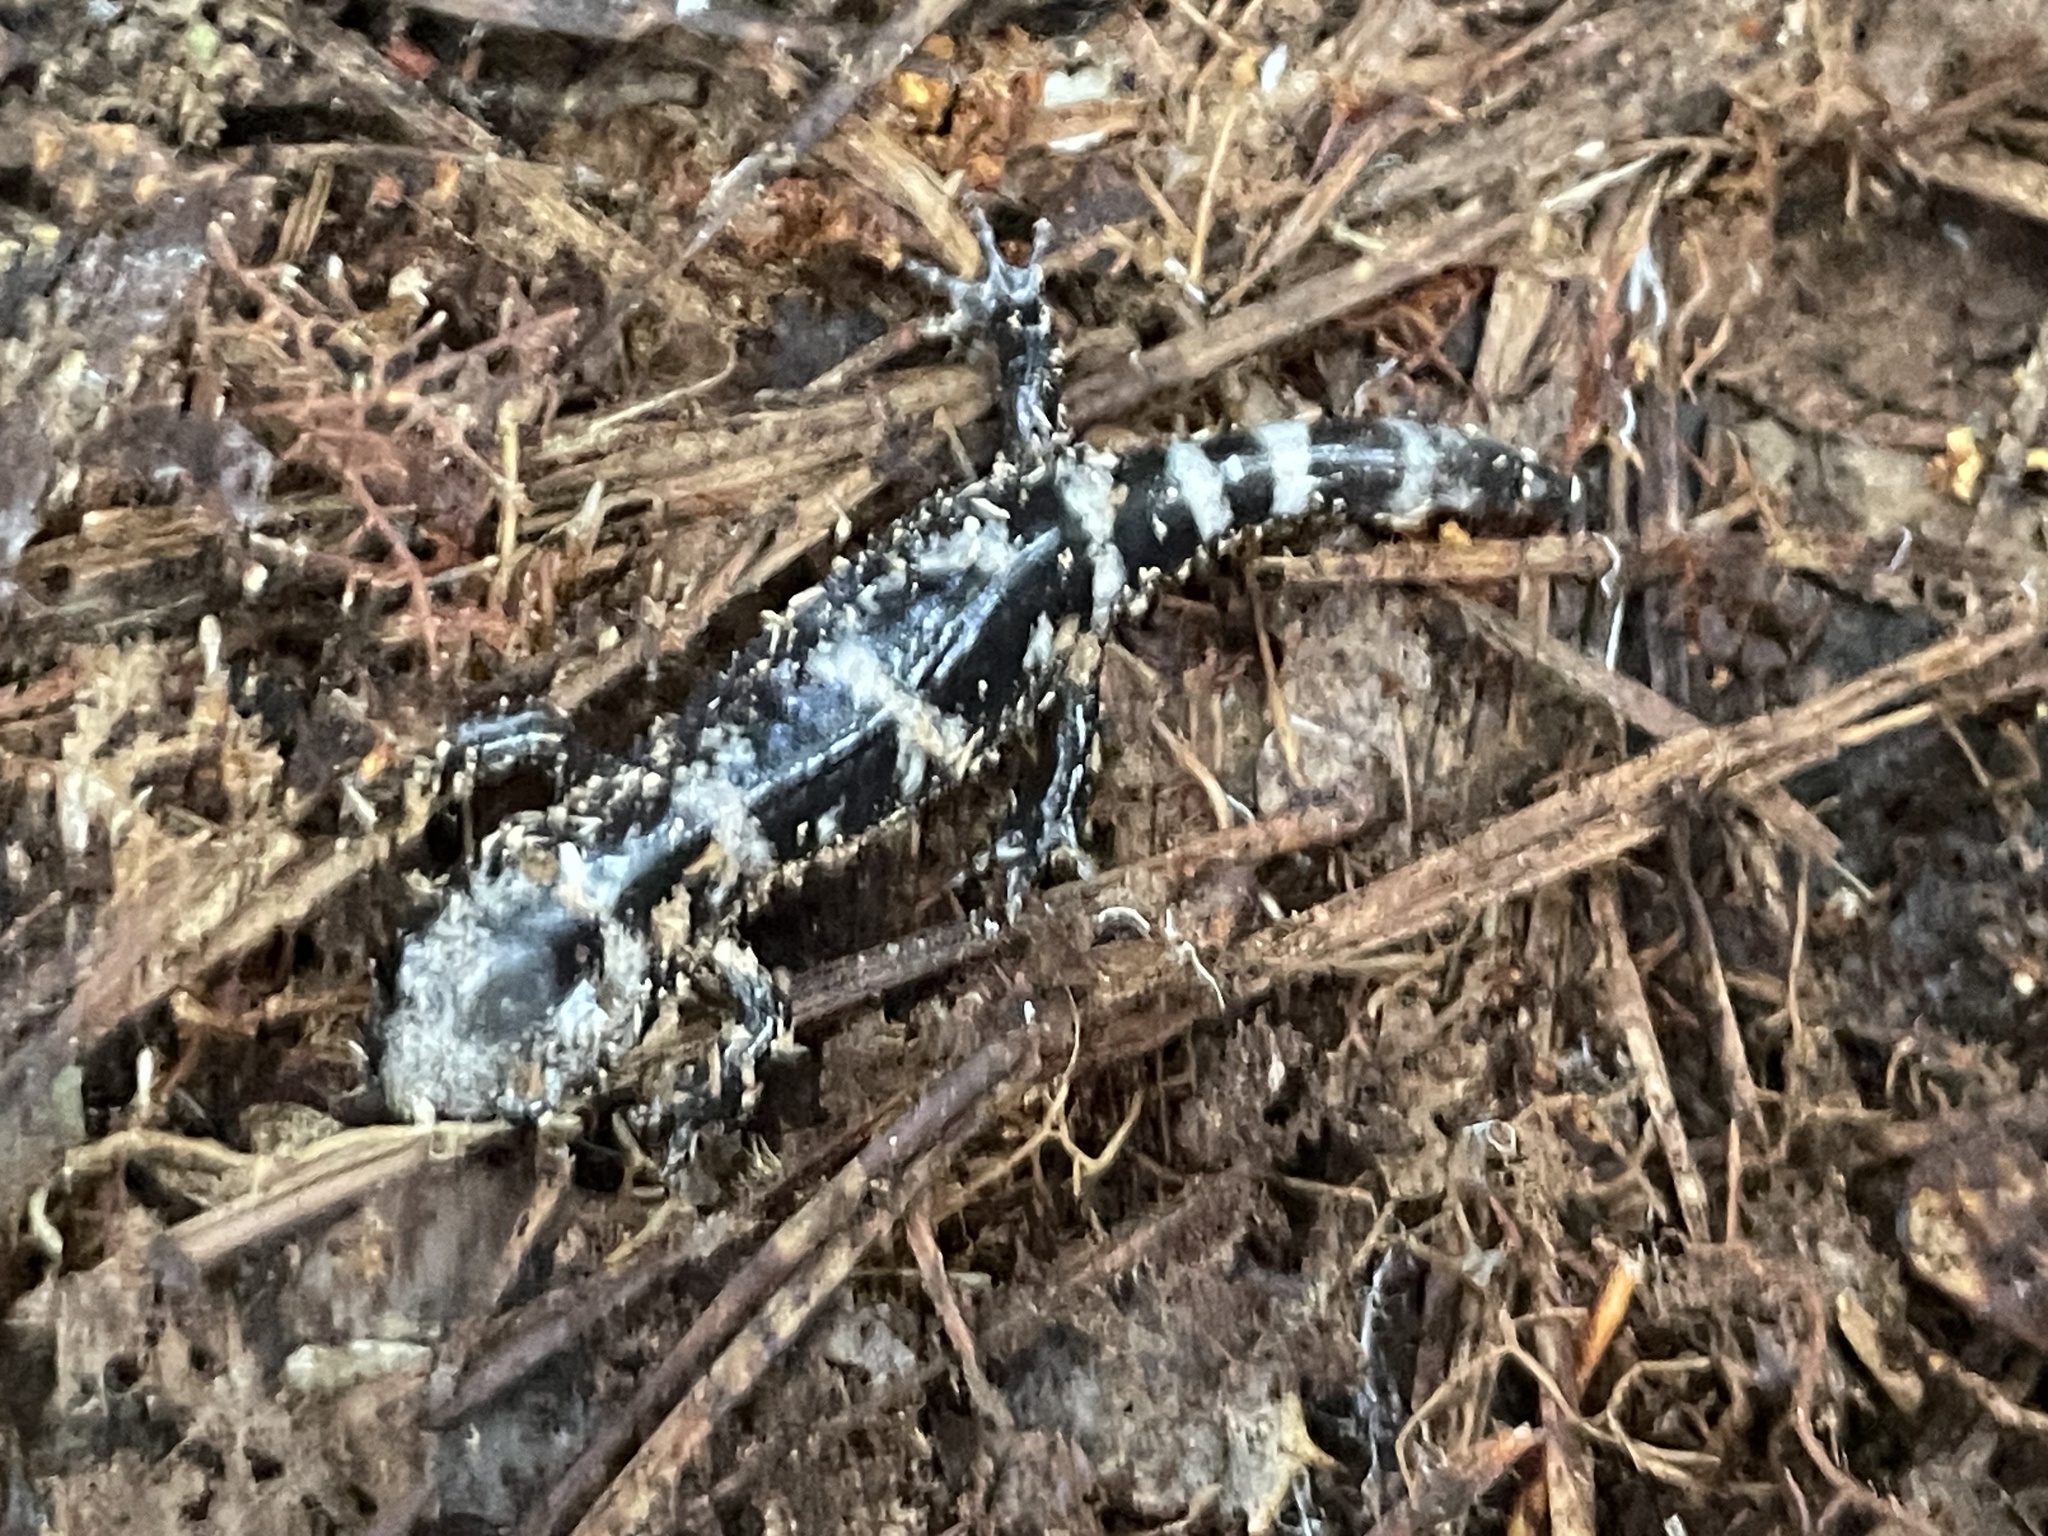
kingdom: Animalia
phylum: Chordata
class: Amphibia
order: Caudata
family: Ambystomatidae
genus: Ambystoma
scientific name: Ambystoma opacum
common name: Marbled salamander
